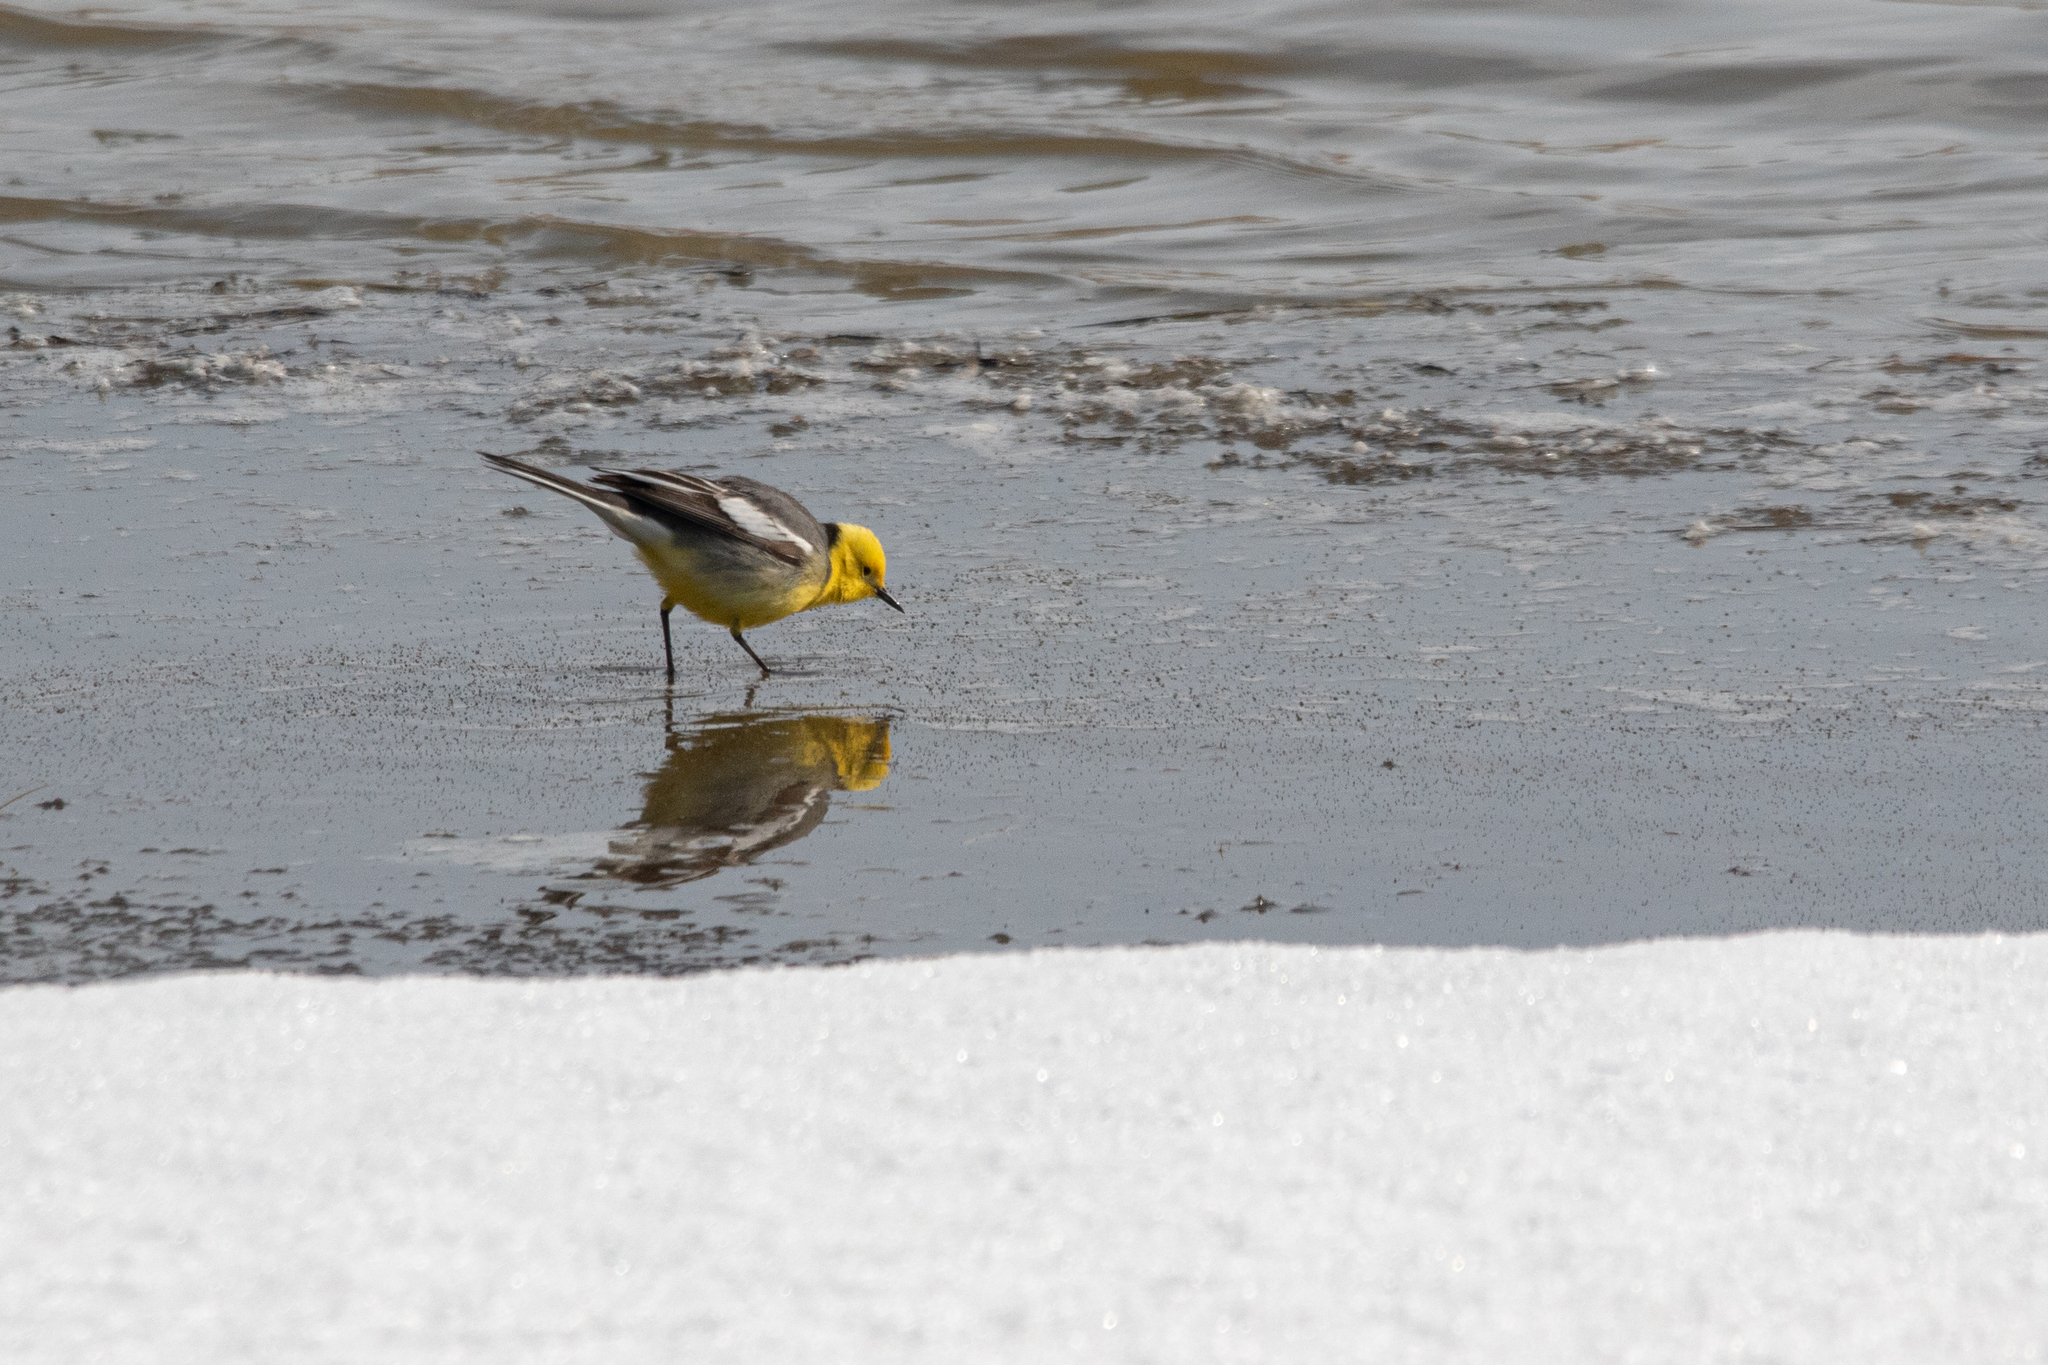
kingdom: Animalia
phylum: Chordata
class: Aves
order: Passeriformes
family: Motacillidae
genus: Motacilla
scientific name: Motacilla citreola
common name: Citrine wagtail
